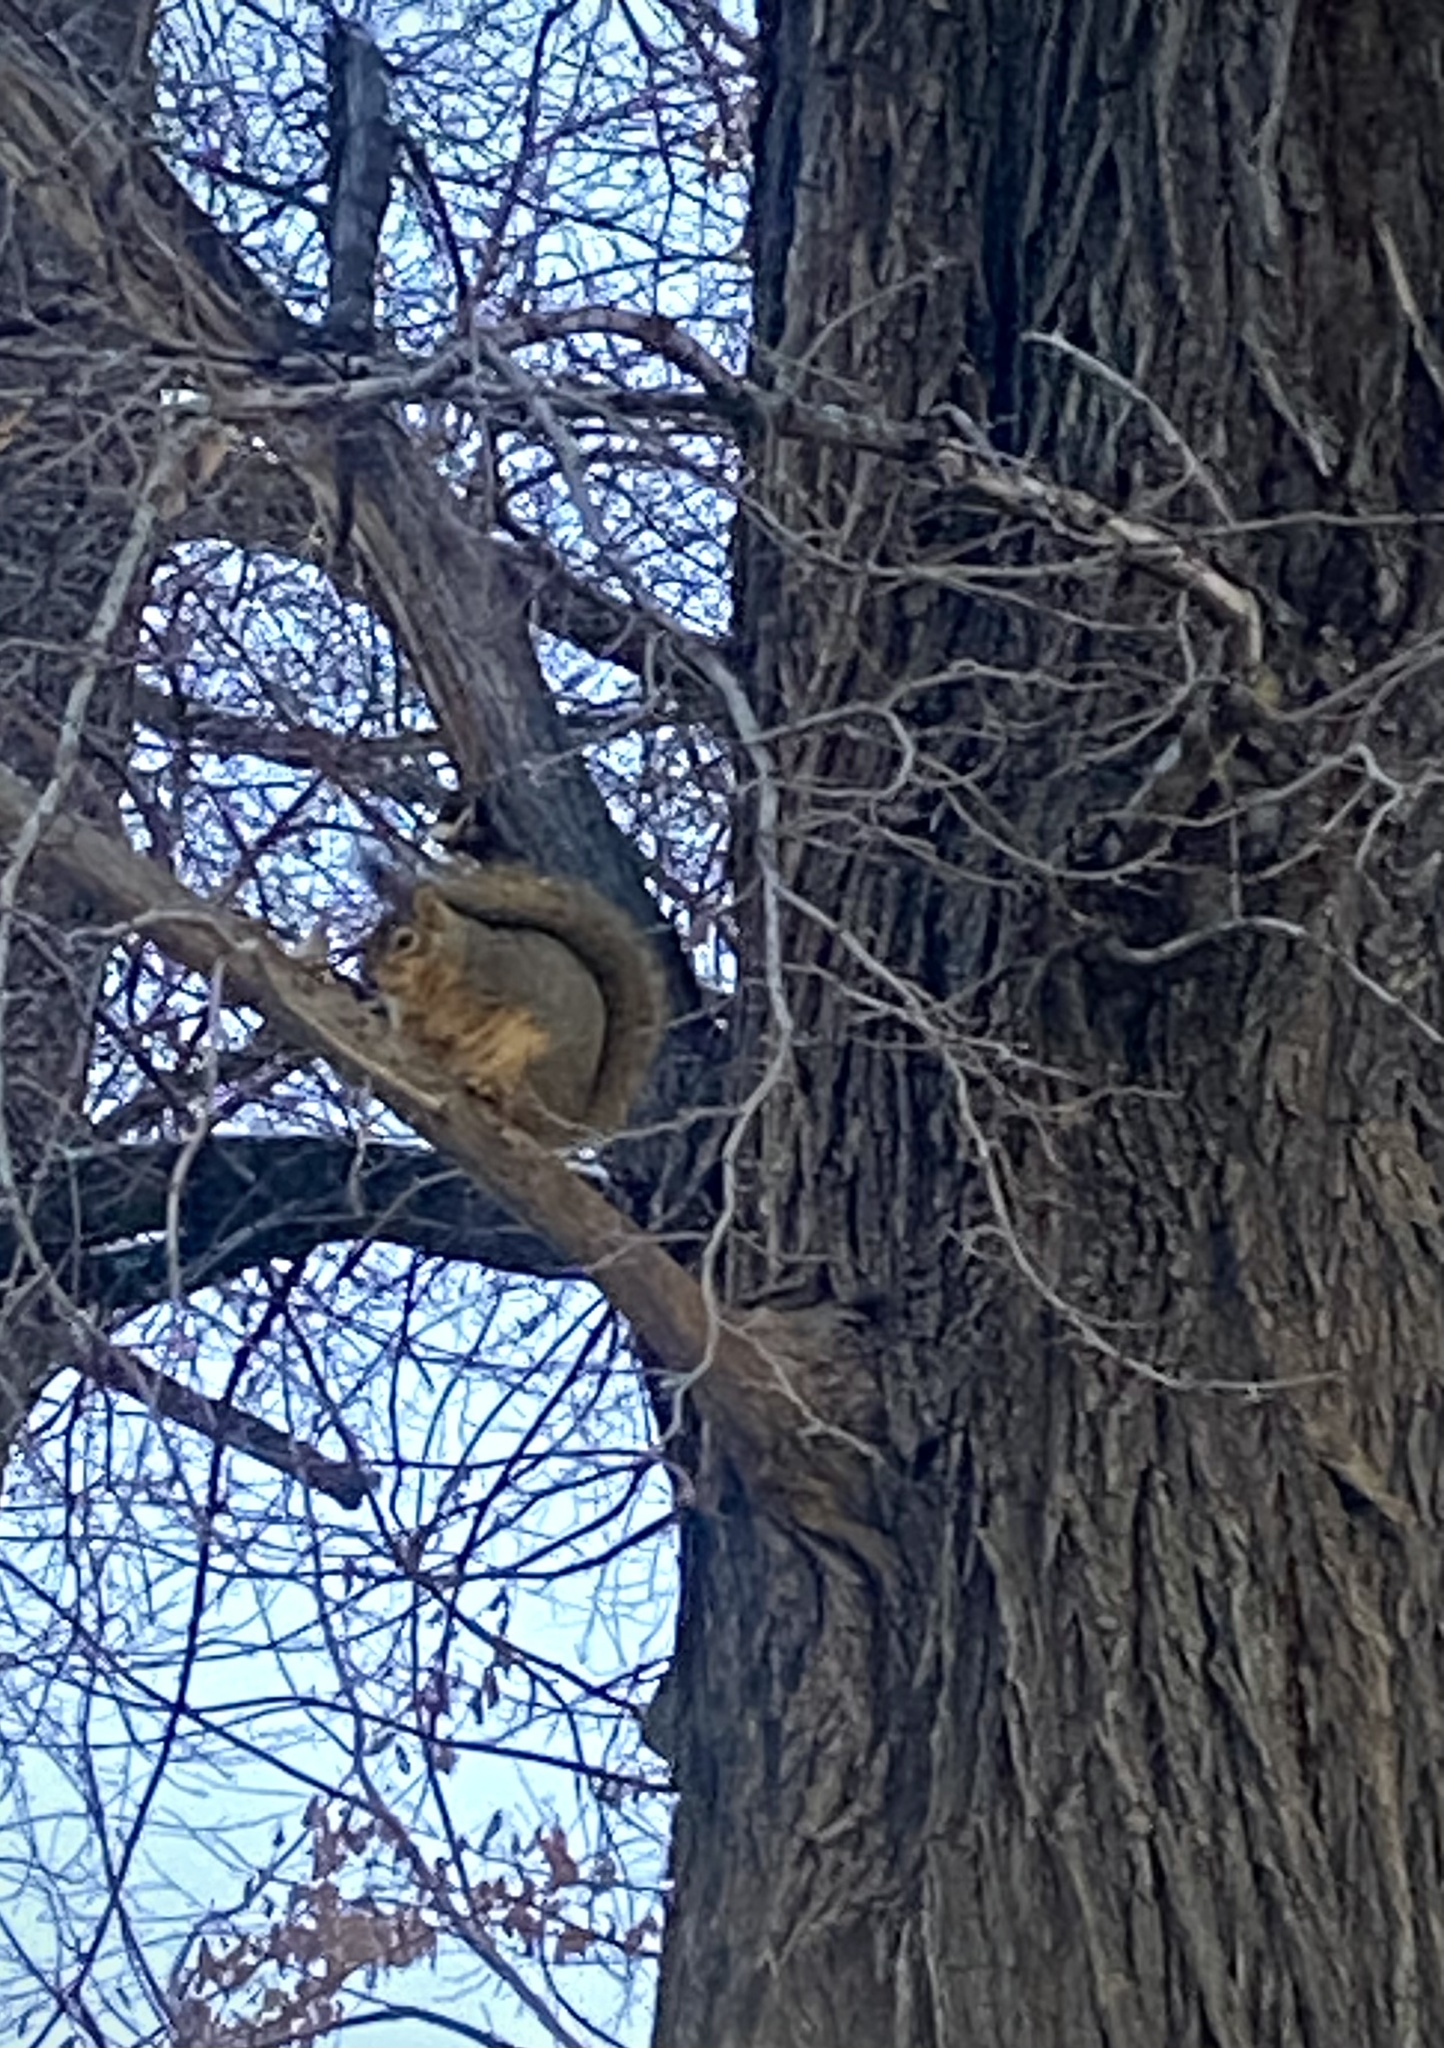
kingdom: Animalia
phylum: Chordata
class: Mammalia
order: Rodentia
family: Sciuridae
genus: Sciurus
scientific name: Sciurus niger
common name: Fox squirrel
